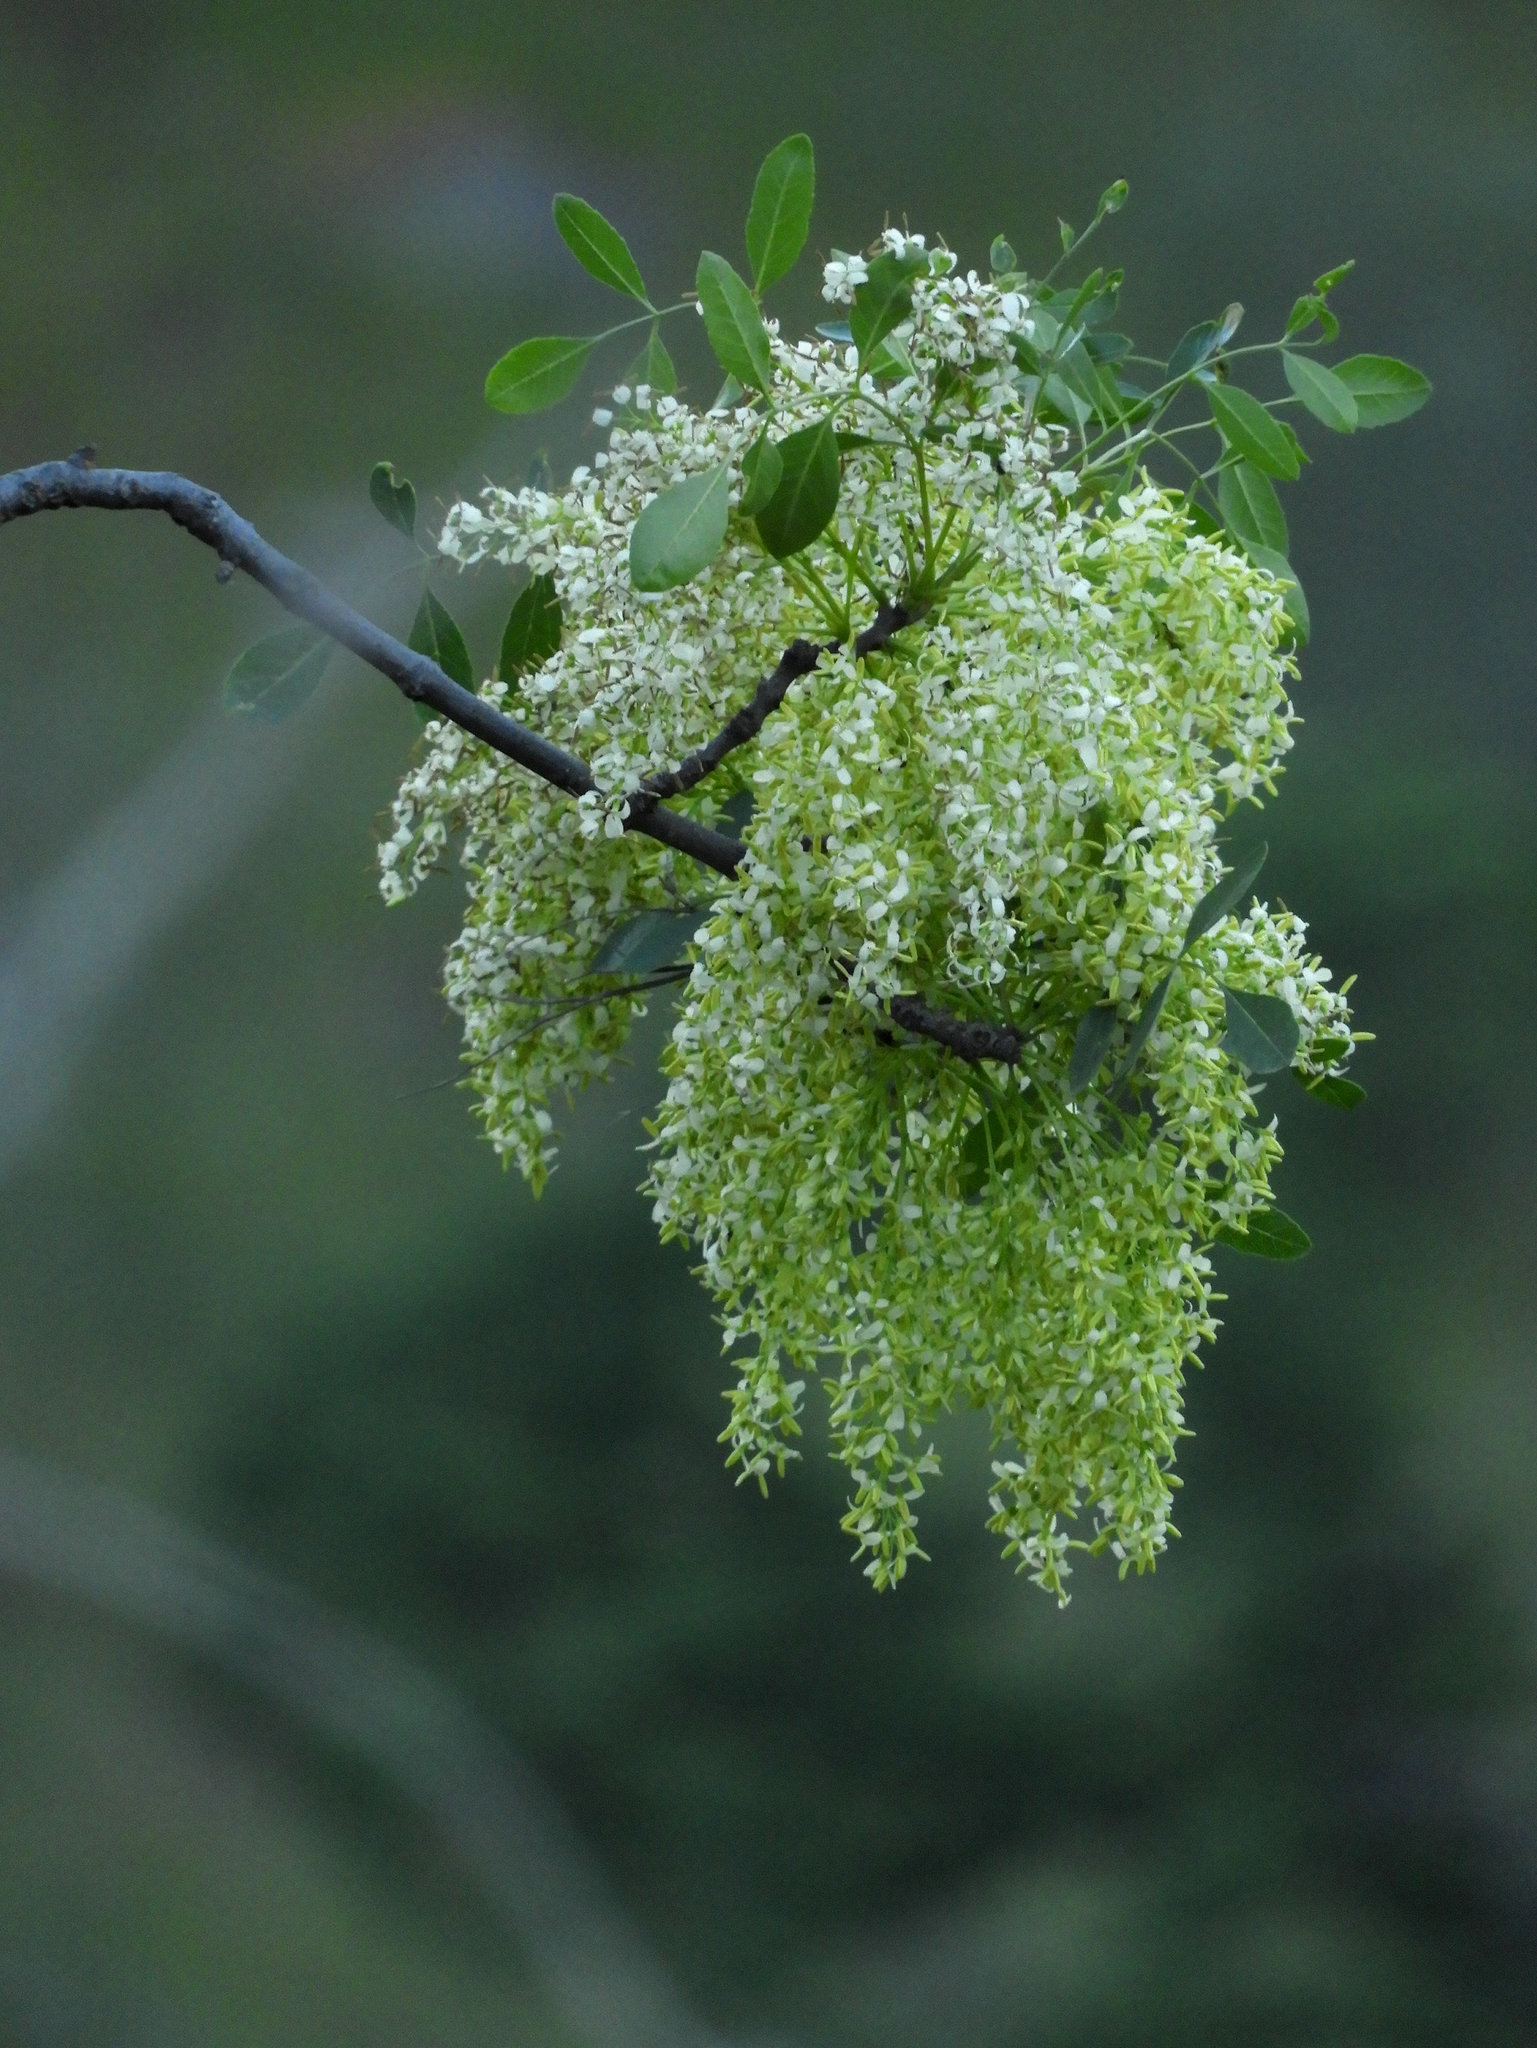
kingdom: Plantae
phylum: Tracheophyta
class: Magnoliopsida
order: Lamiales
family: Oleaceae
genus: Fraxinus
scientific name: Fraxinus dipetala
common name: California ash
